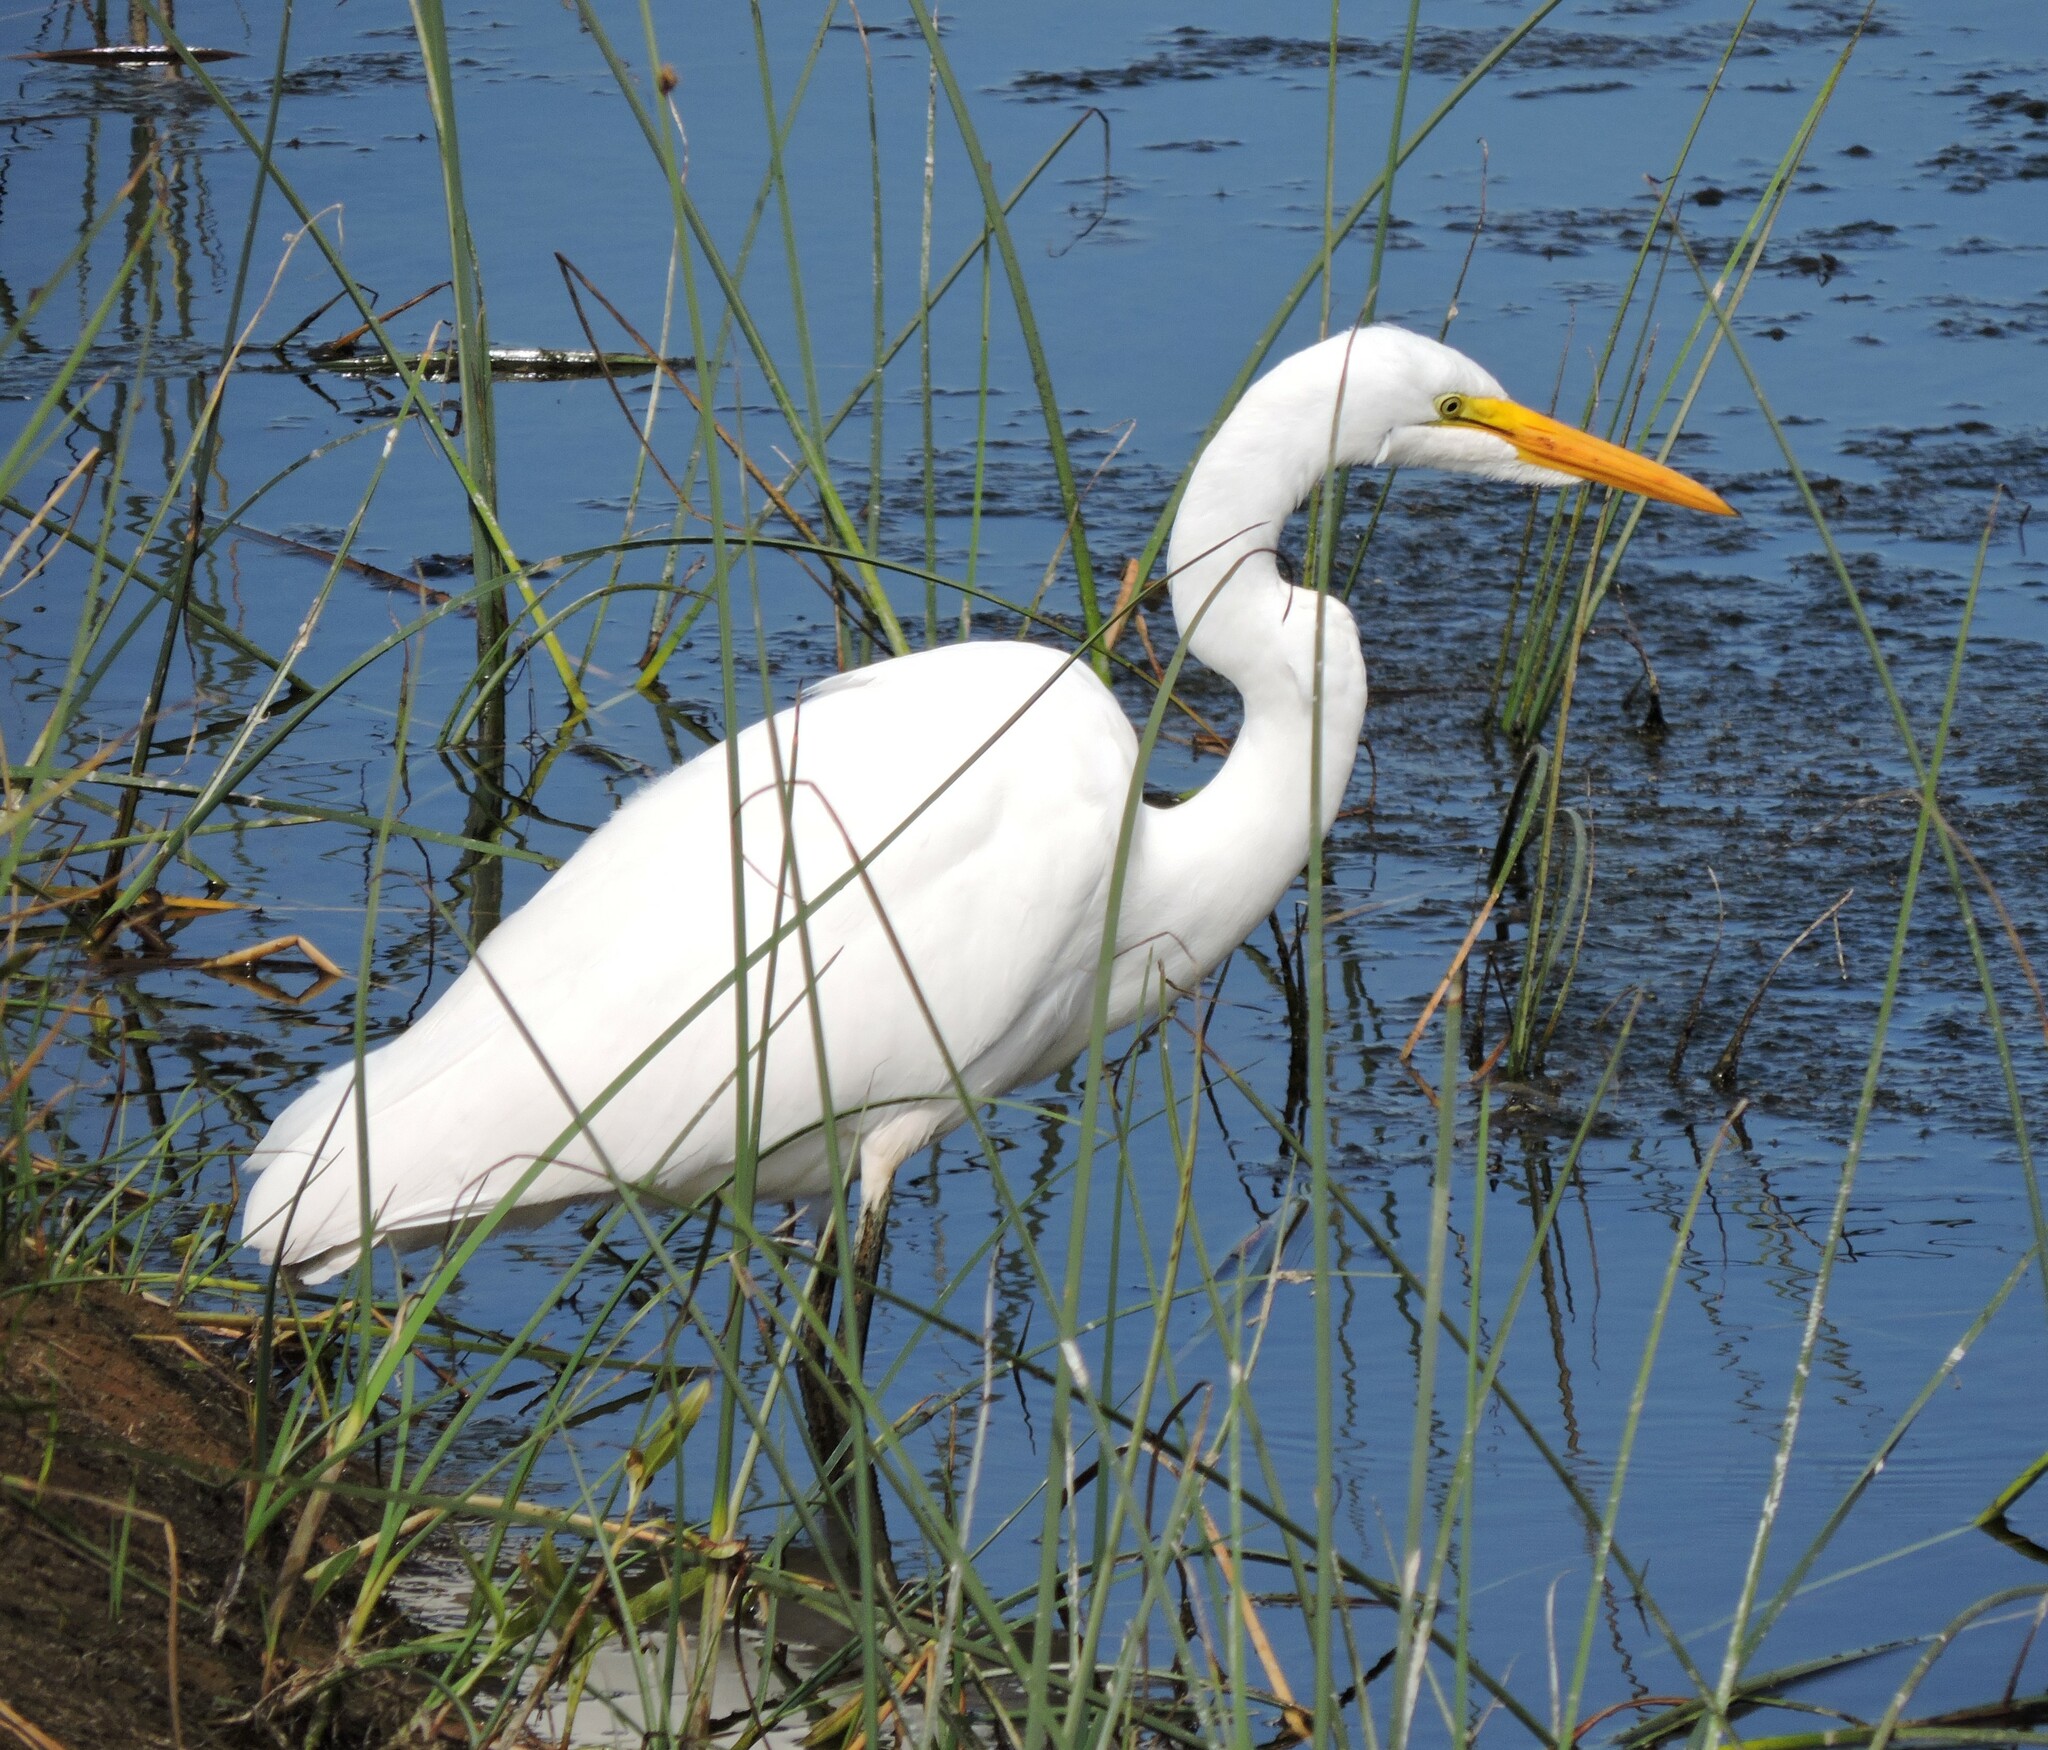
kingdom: Animalia
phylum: Chordata
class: Aves
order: Pelecaniformes
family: Ardeidae
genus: Ardea
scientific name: Ardea alba
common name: Great egret
